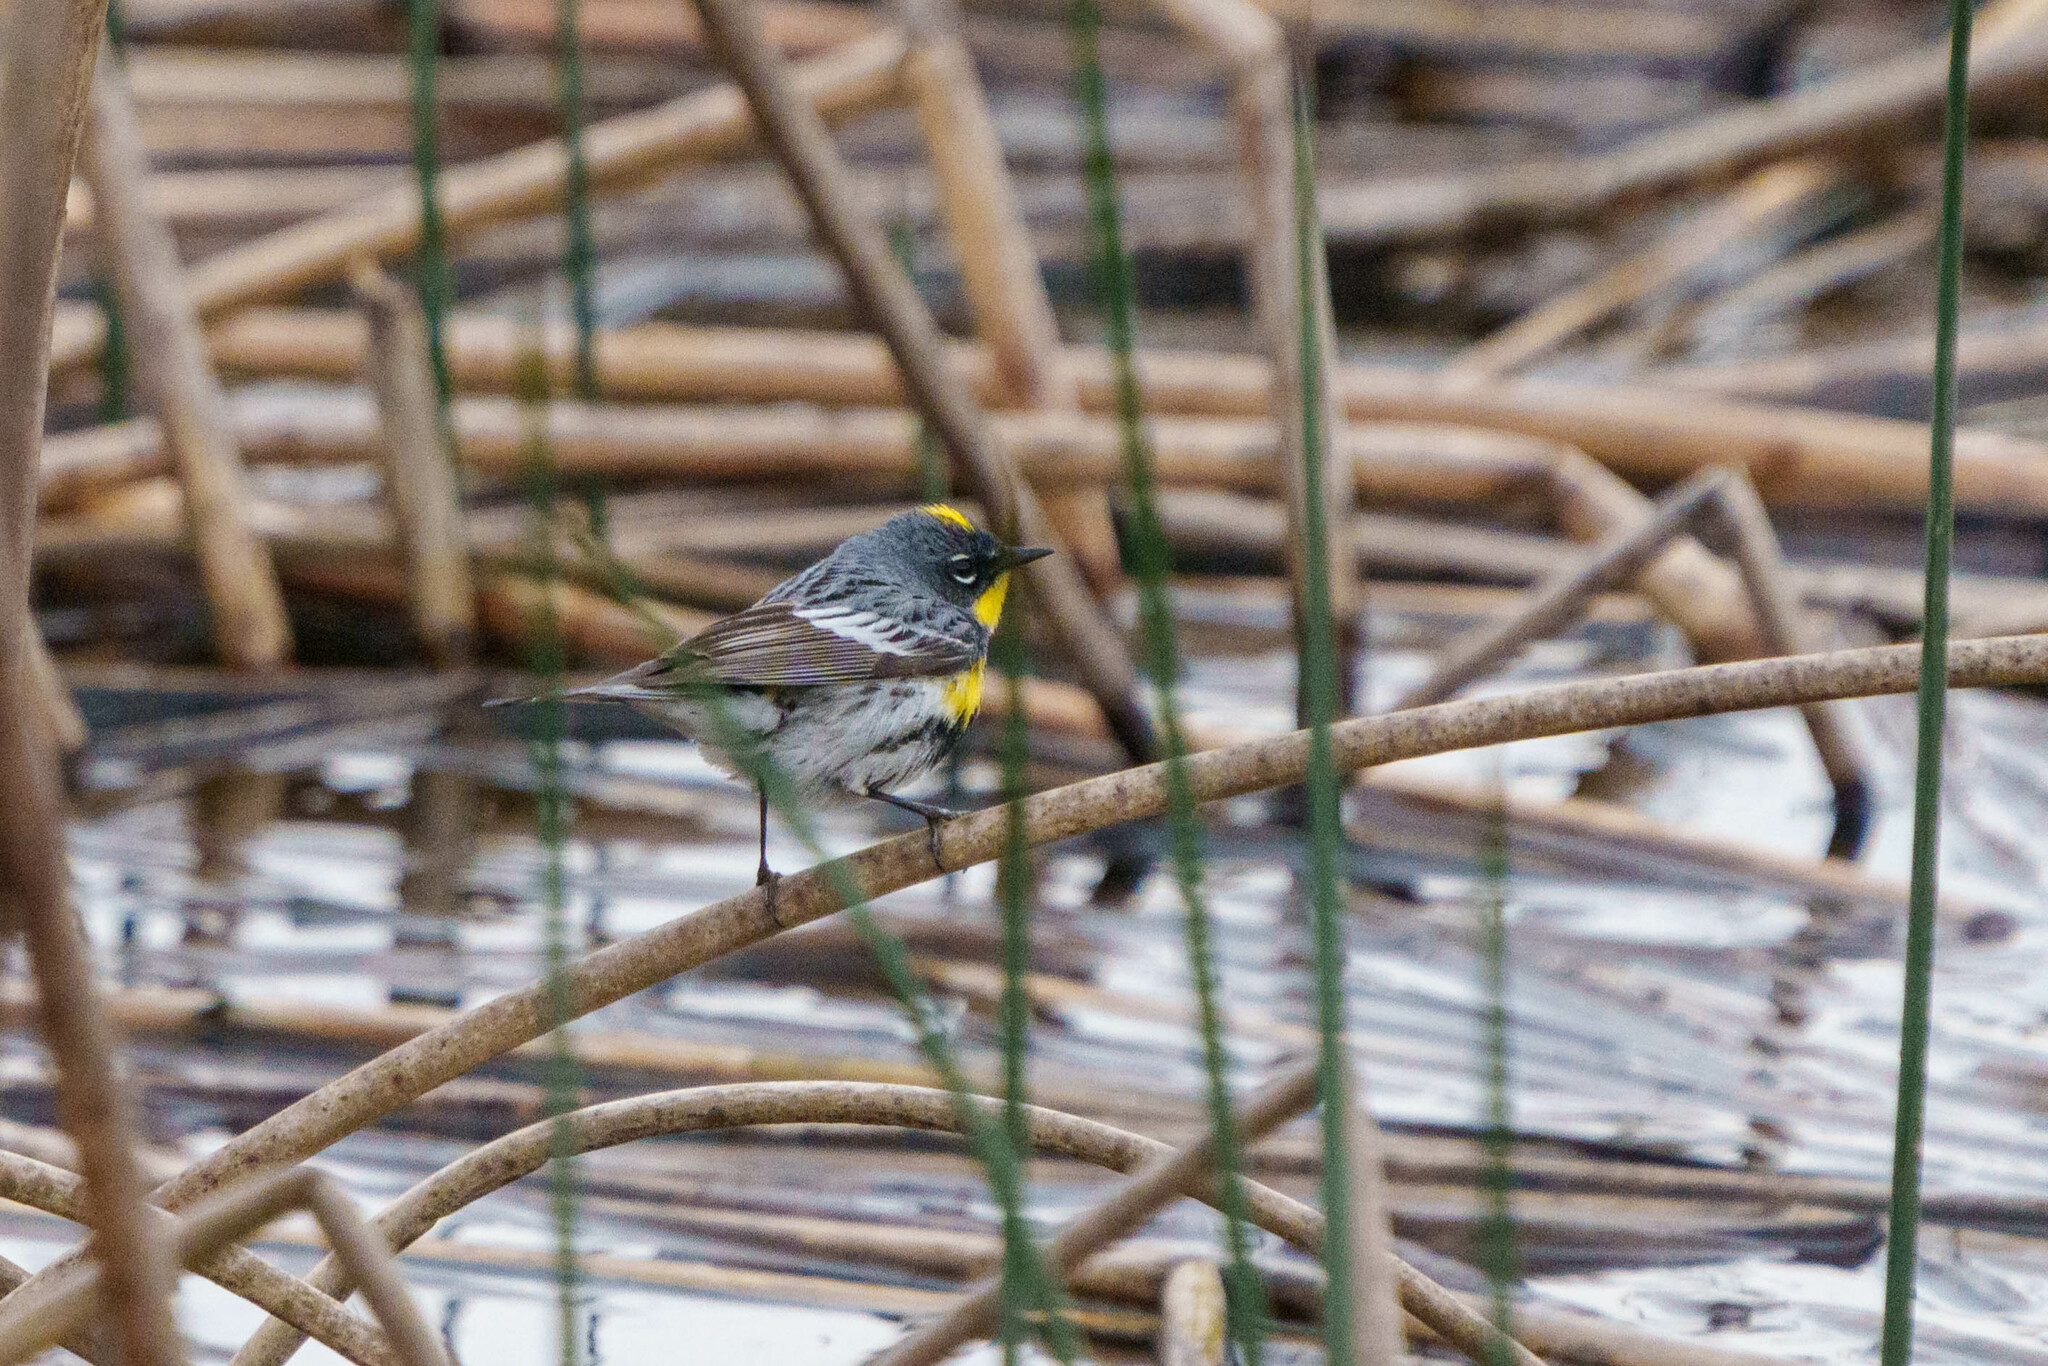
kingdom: Animalia
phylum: Chordata
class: Aves
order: Passeriformes
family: Parulidae
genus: Setophaga
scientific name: Setophaga auduboni
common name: Audubon's warbler
